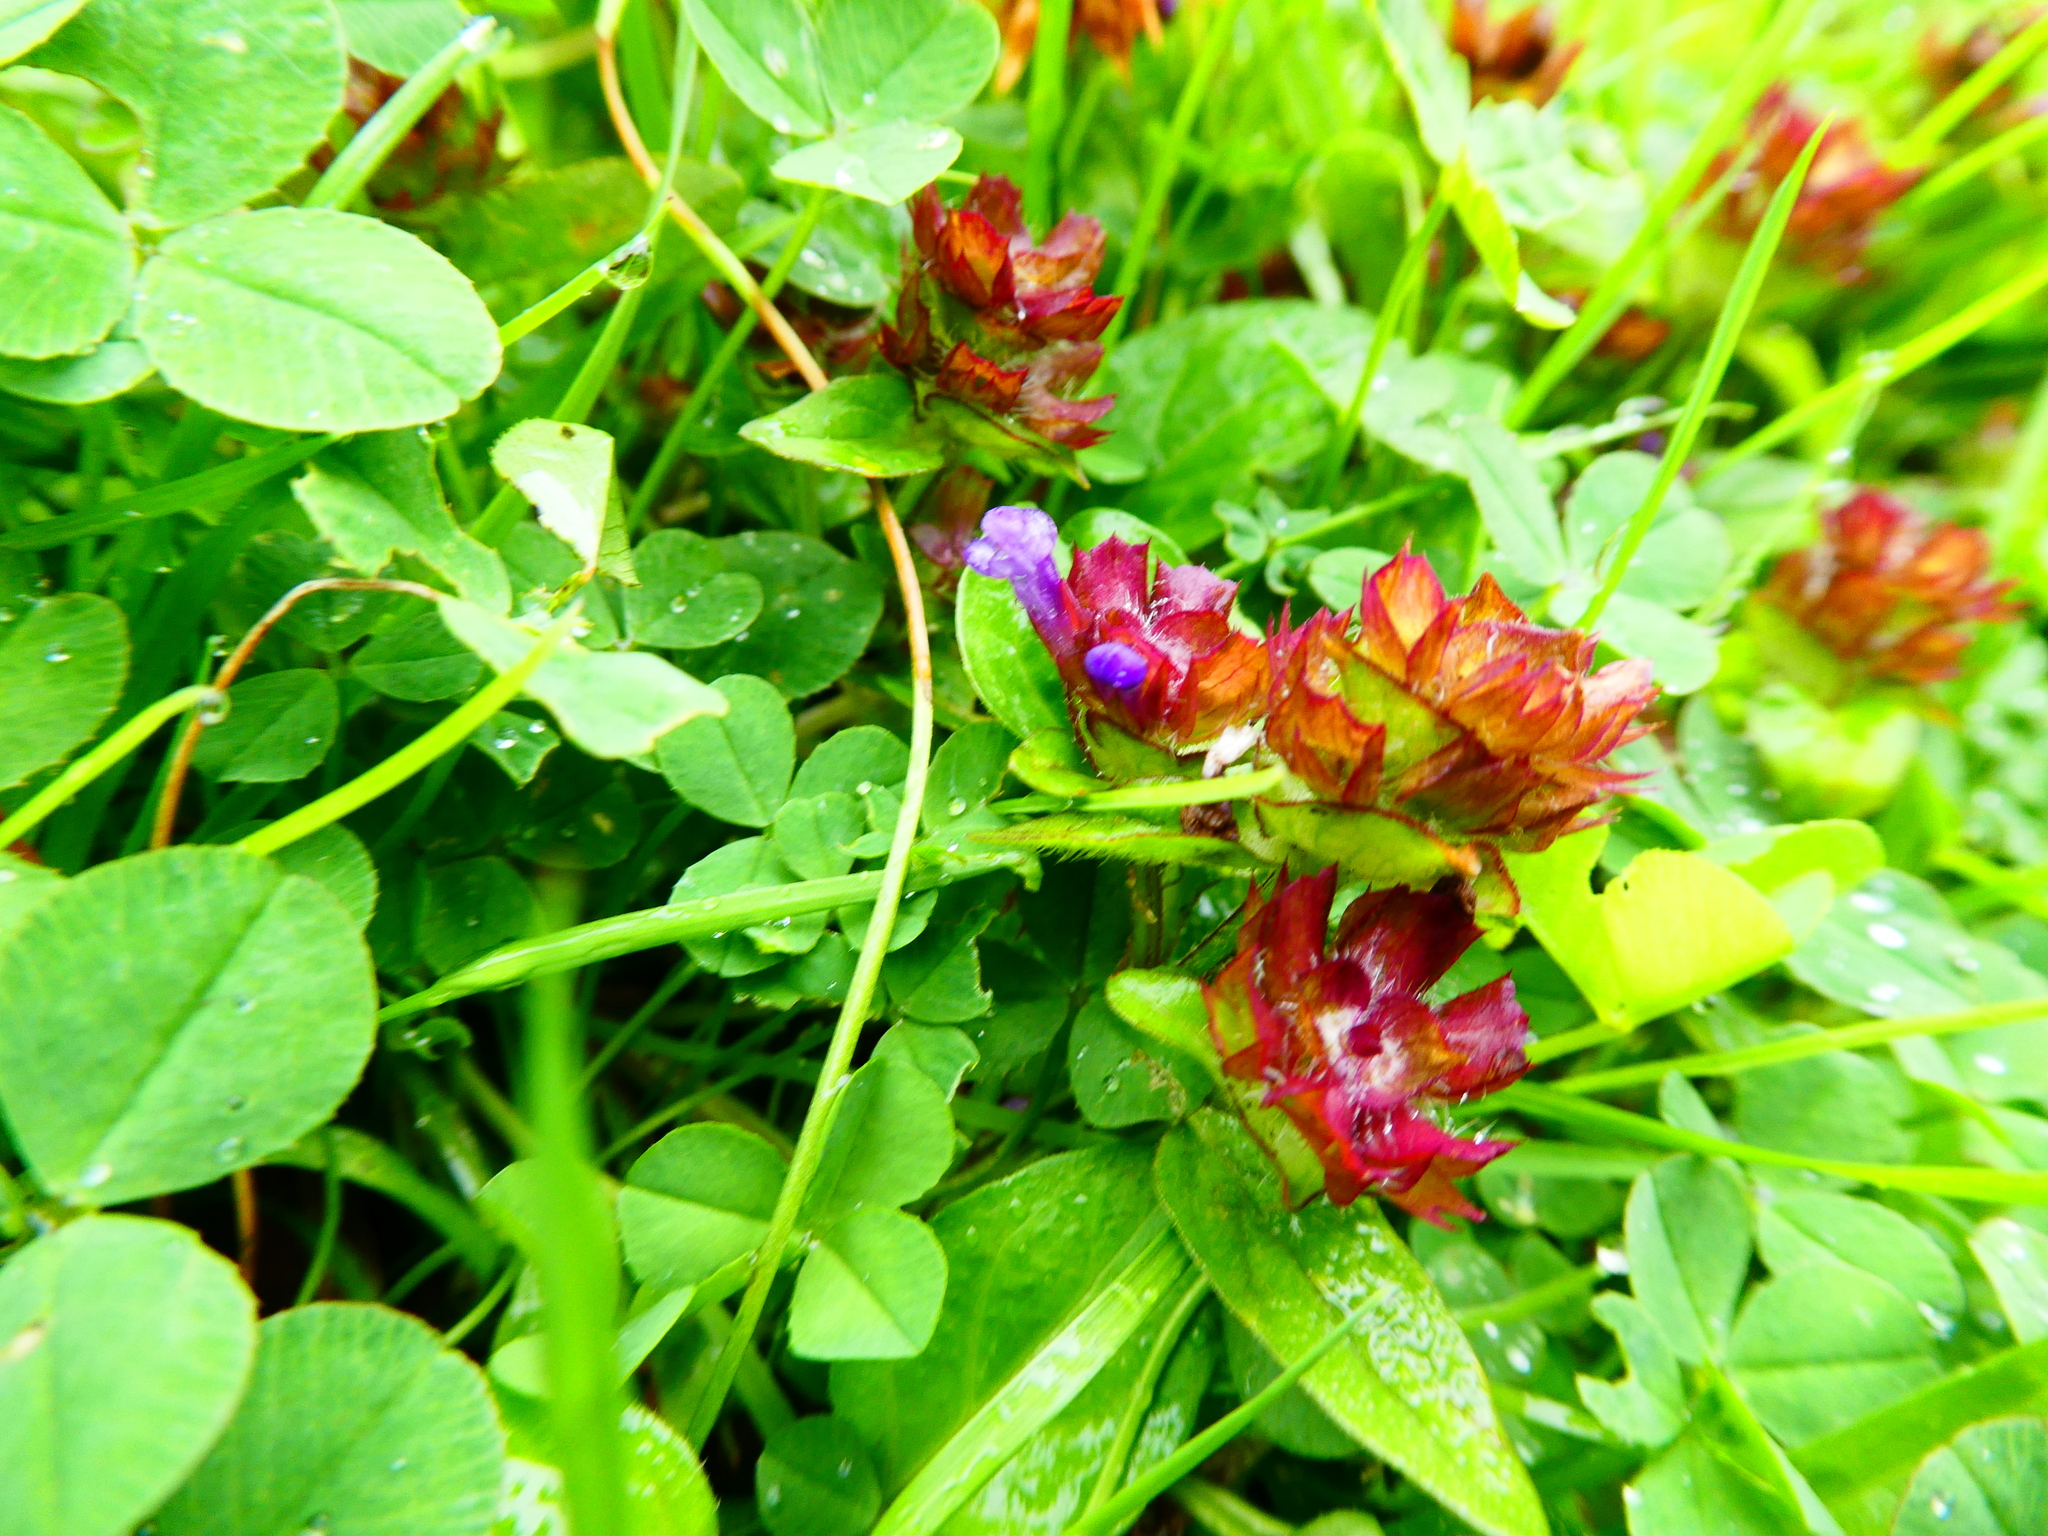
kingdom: Plantae
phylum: Tracheophyta
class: Magnoliopsida
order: Lamiales
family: Lamiaceae
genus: Prunella
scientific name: Prunella vulgaris
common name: Heal-all
